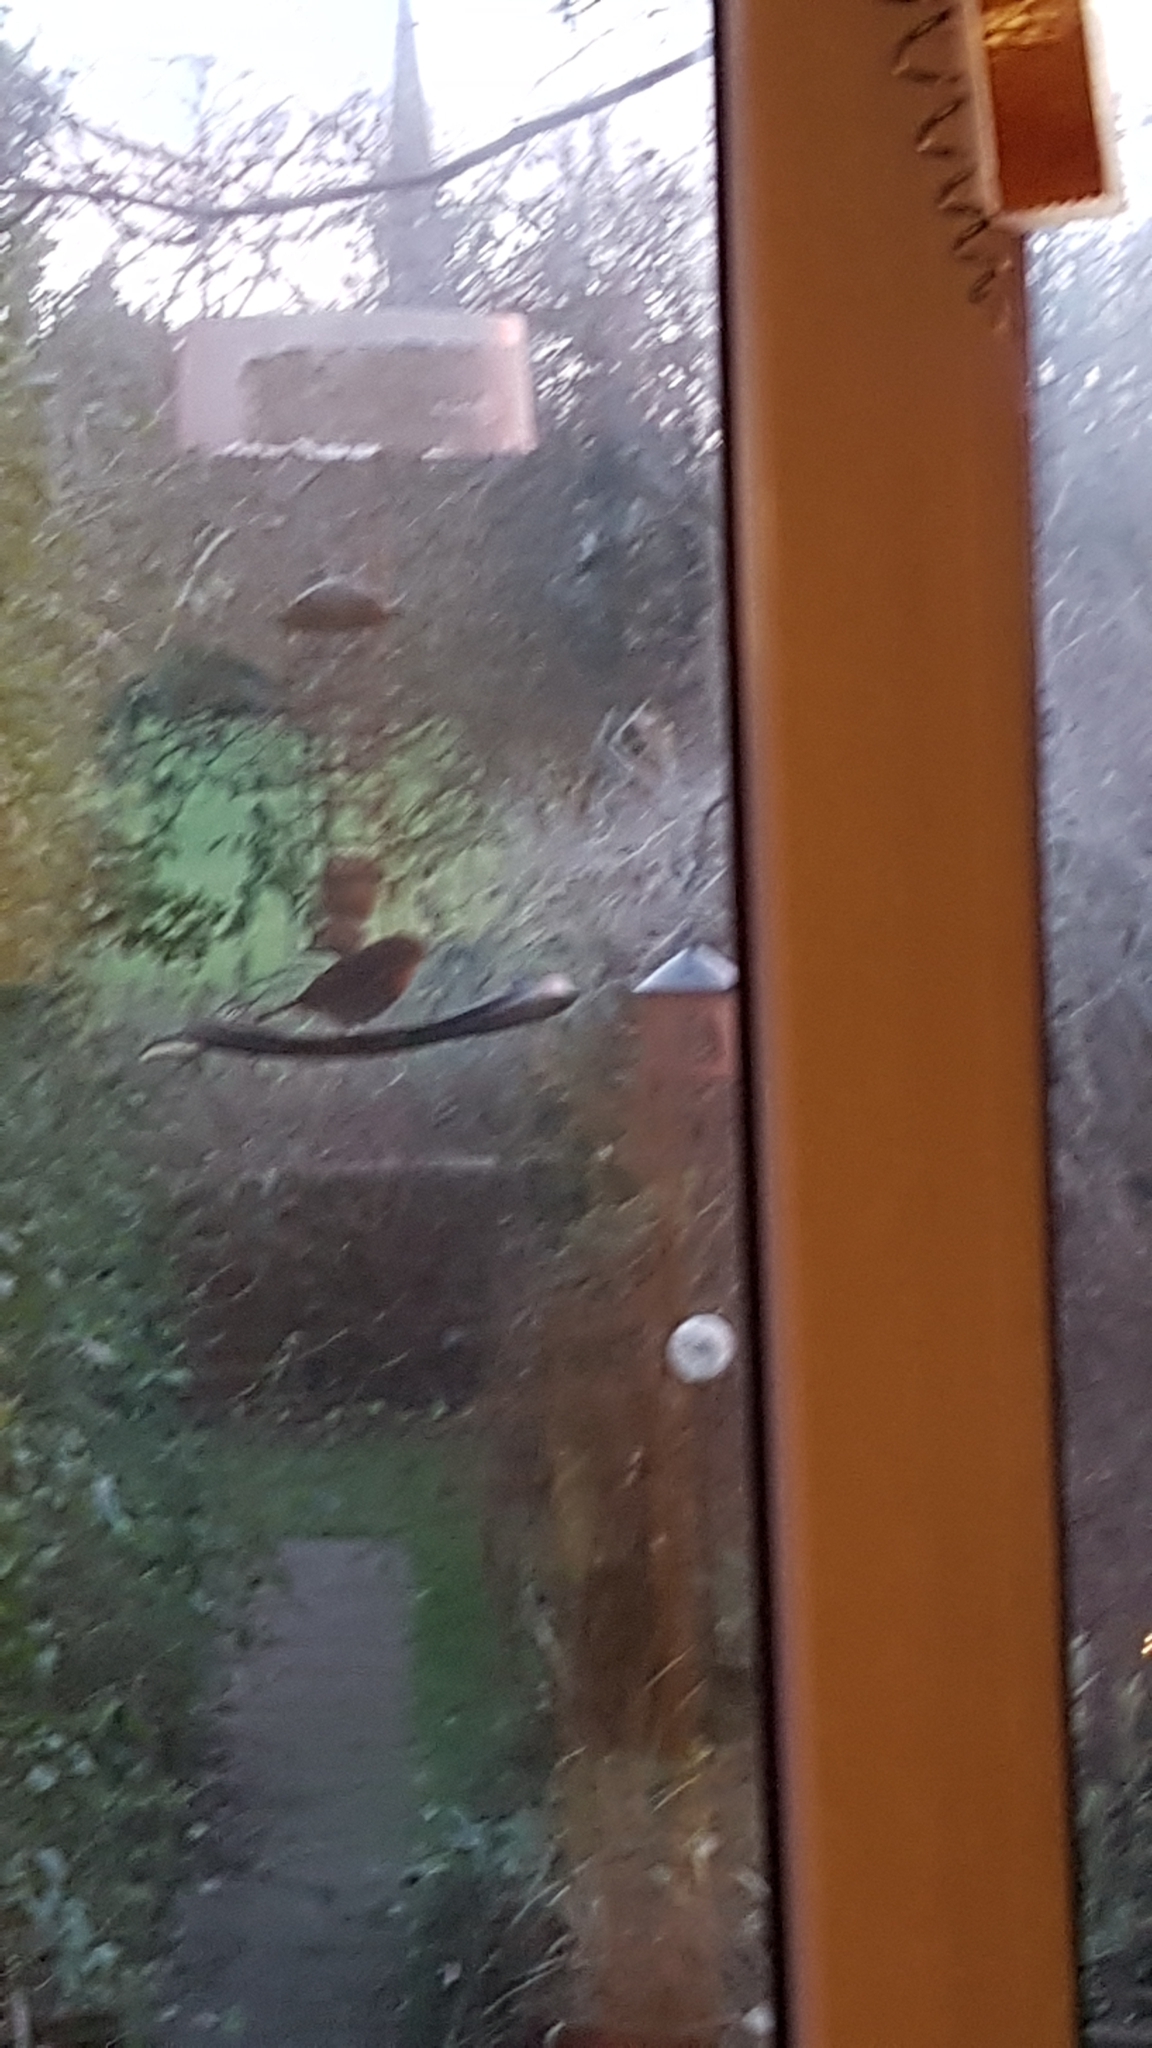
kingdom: Animalia
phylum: Chordata
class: Aves
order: Passeriformes
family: Muscicapidae
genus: Erithacus
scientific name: Erithacus rubecula
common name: European robin
